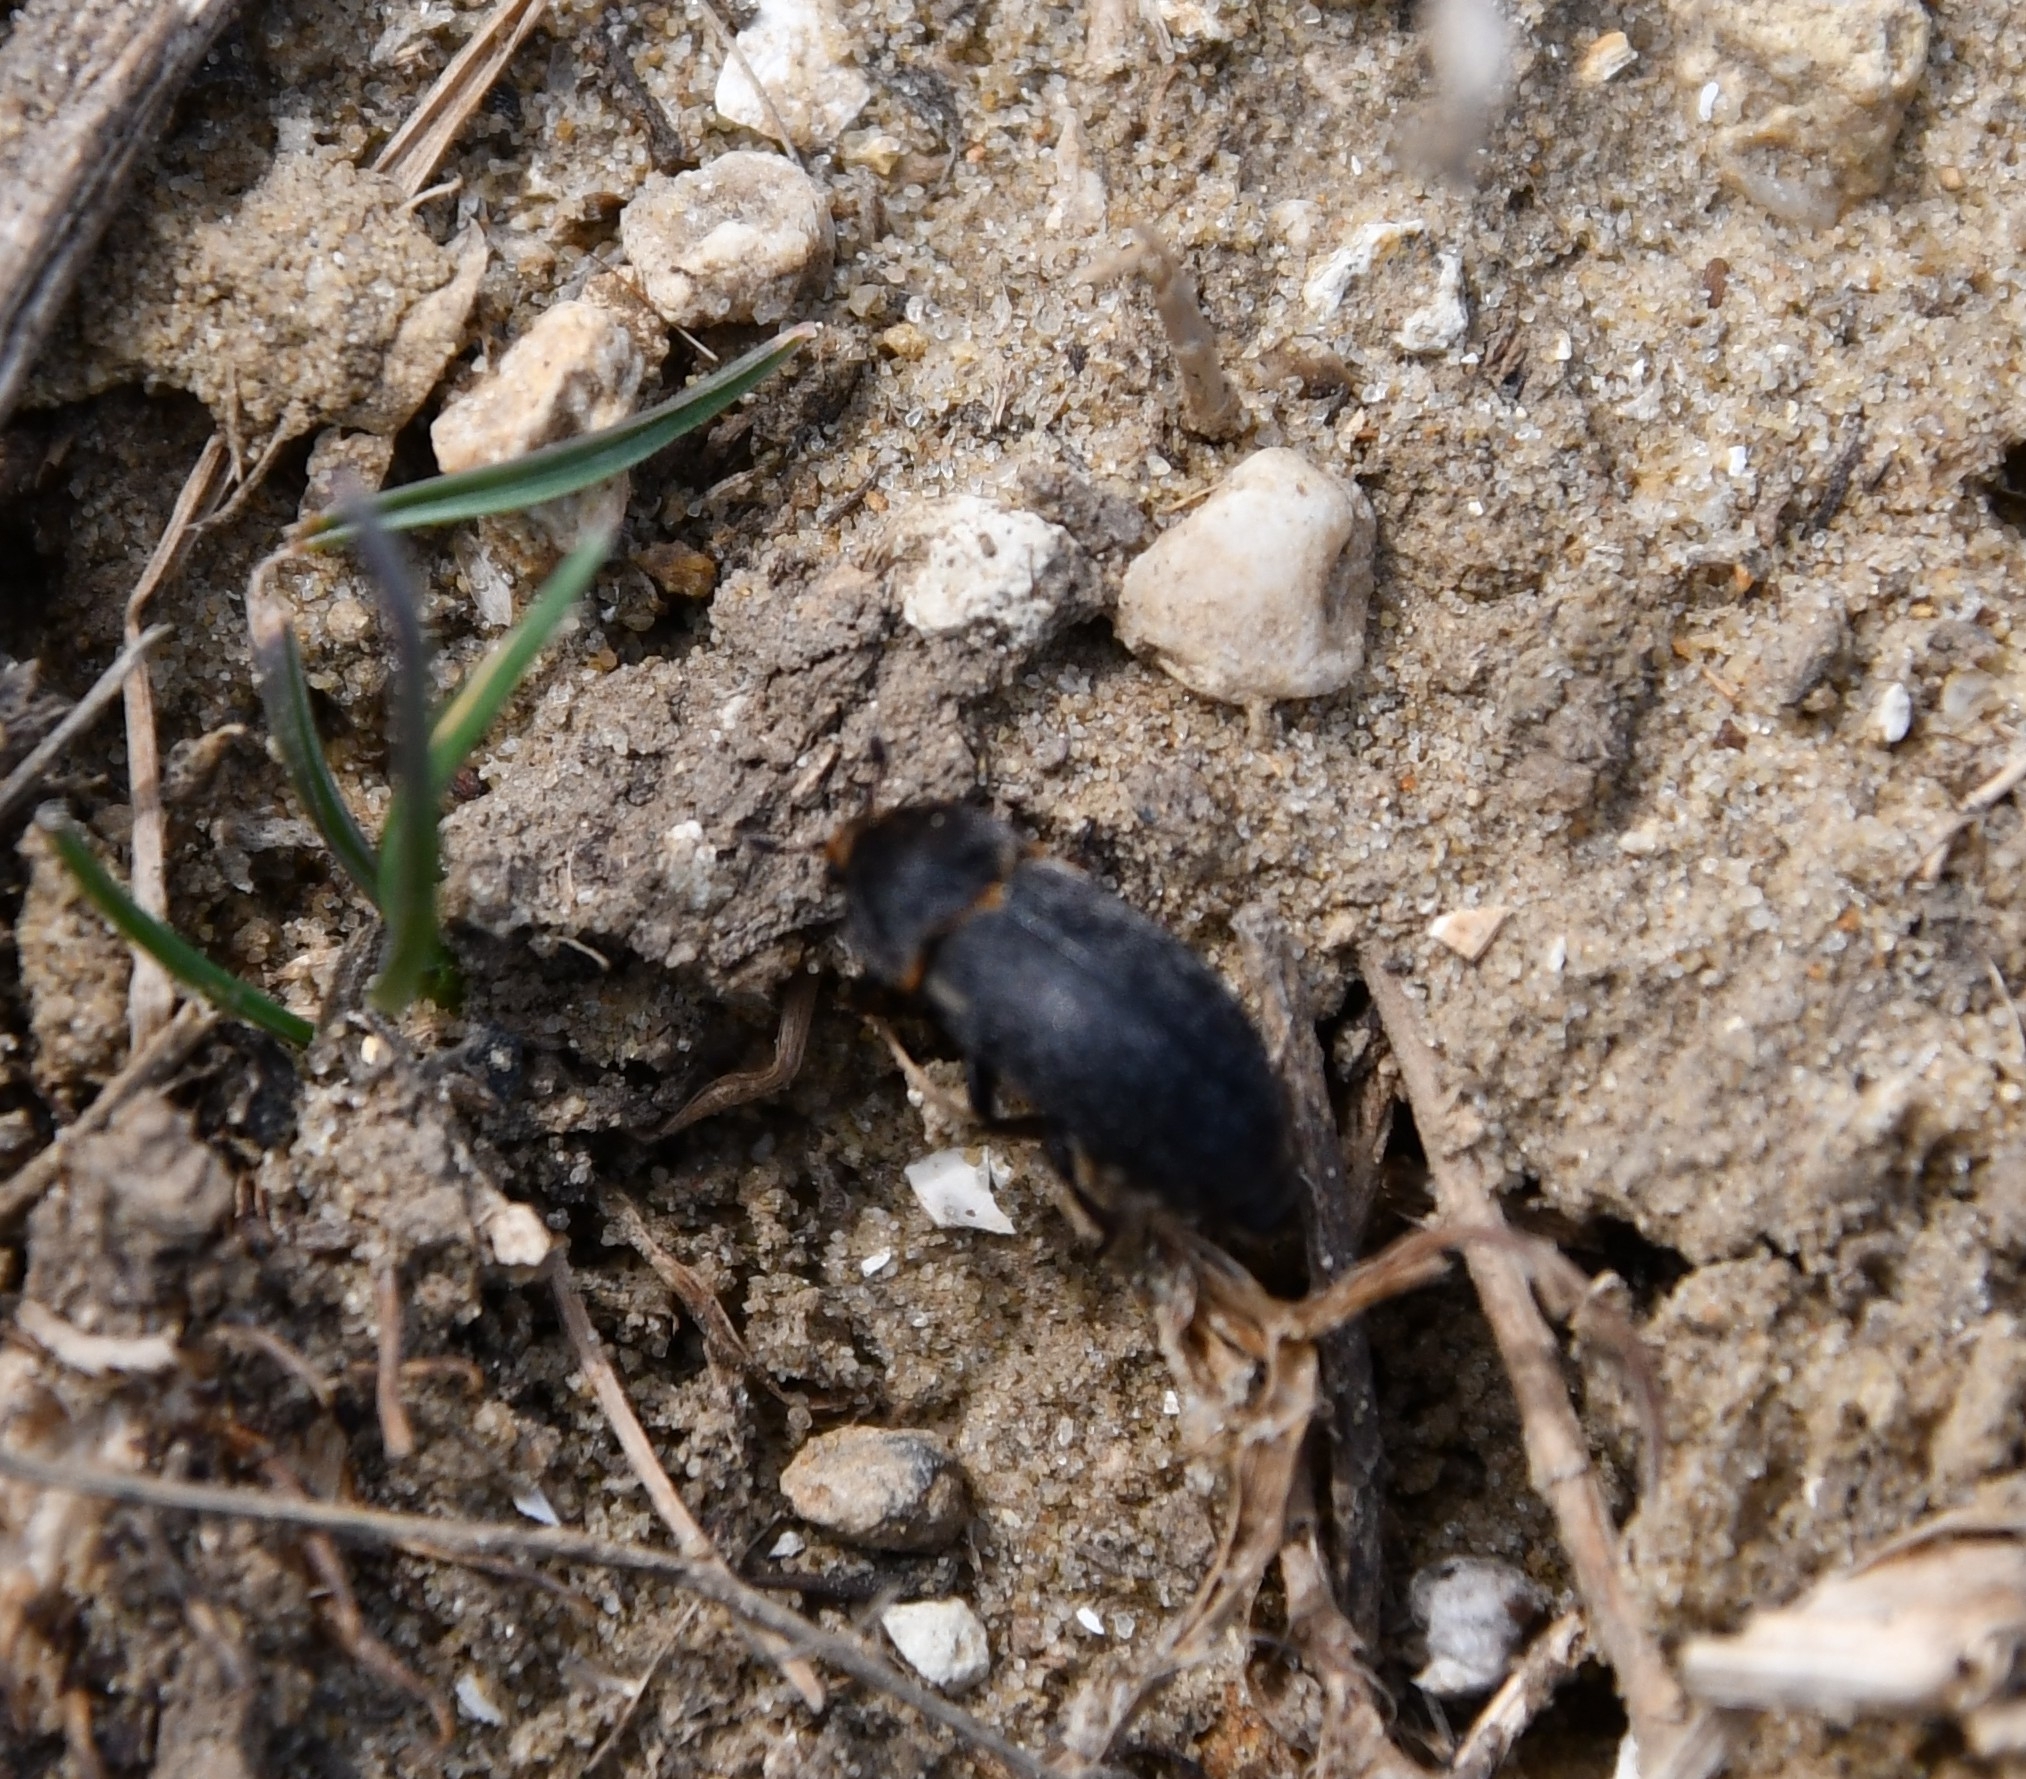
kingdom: Animalia
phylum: Arthropoda
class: Insecta
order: Coleoptera
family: Dermestidae
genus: Dermestes
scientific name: Dermestes laniarius
